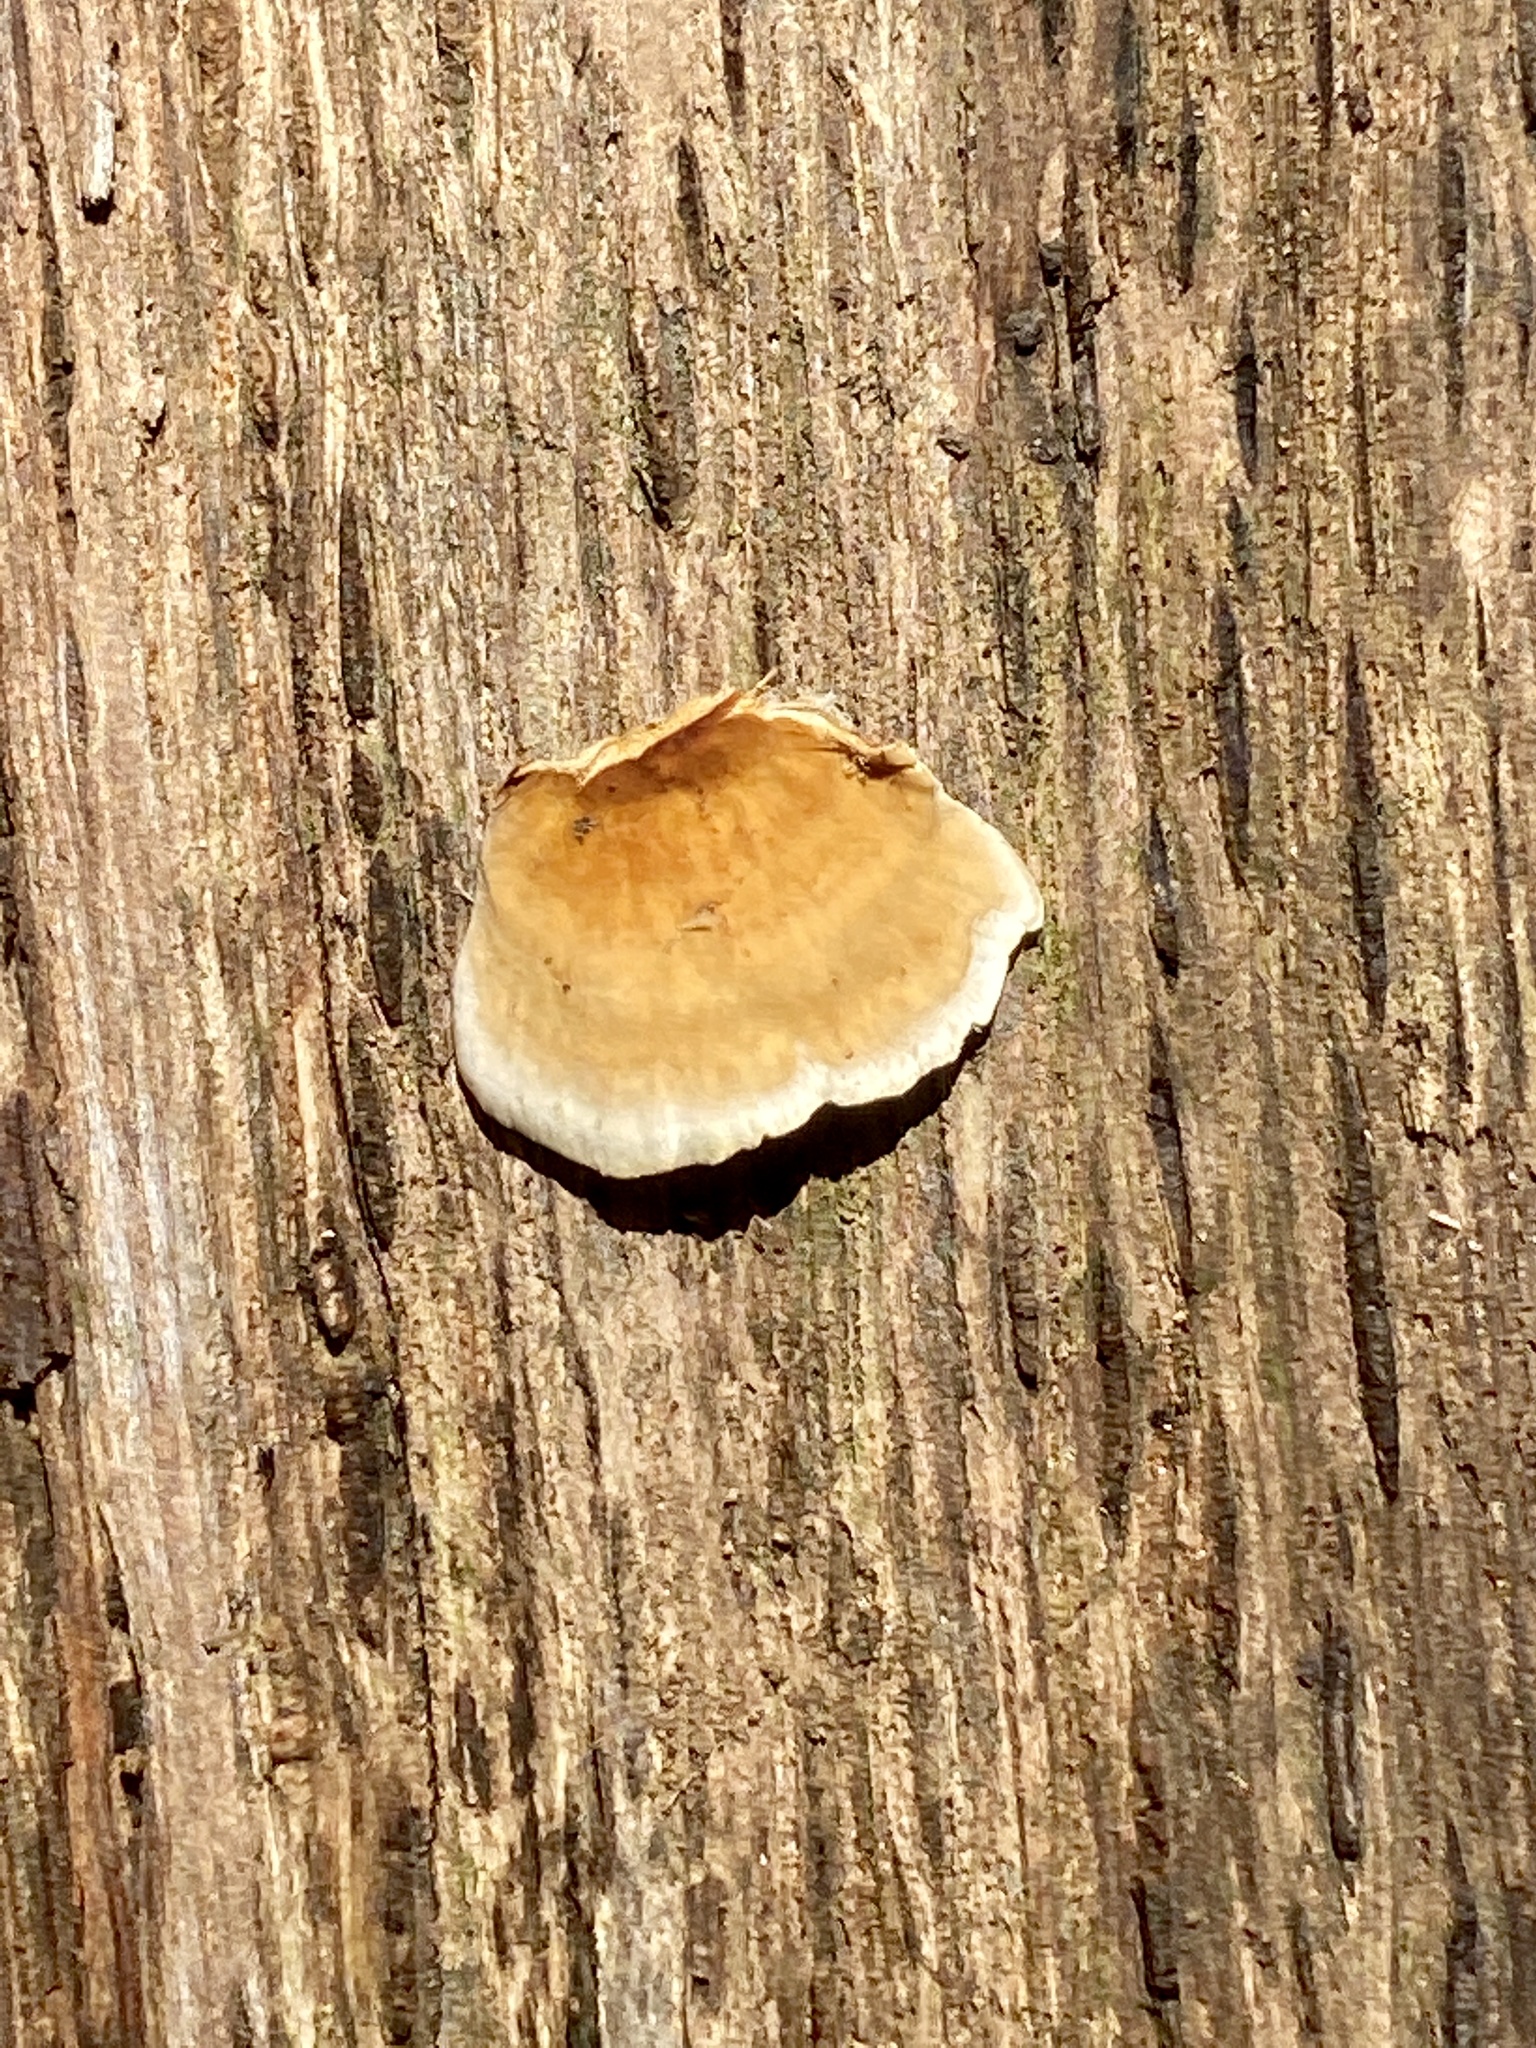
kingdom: Fungi
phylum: Basidiomycota
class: Agaricomycetes
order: Russulales
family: Stereaceae
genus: Stereum
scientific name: Stereum lobatum
